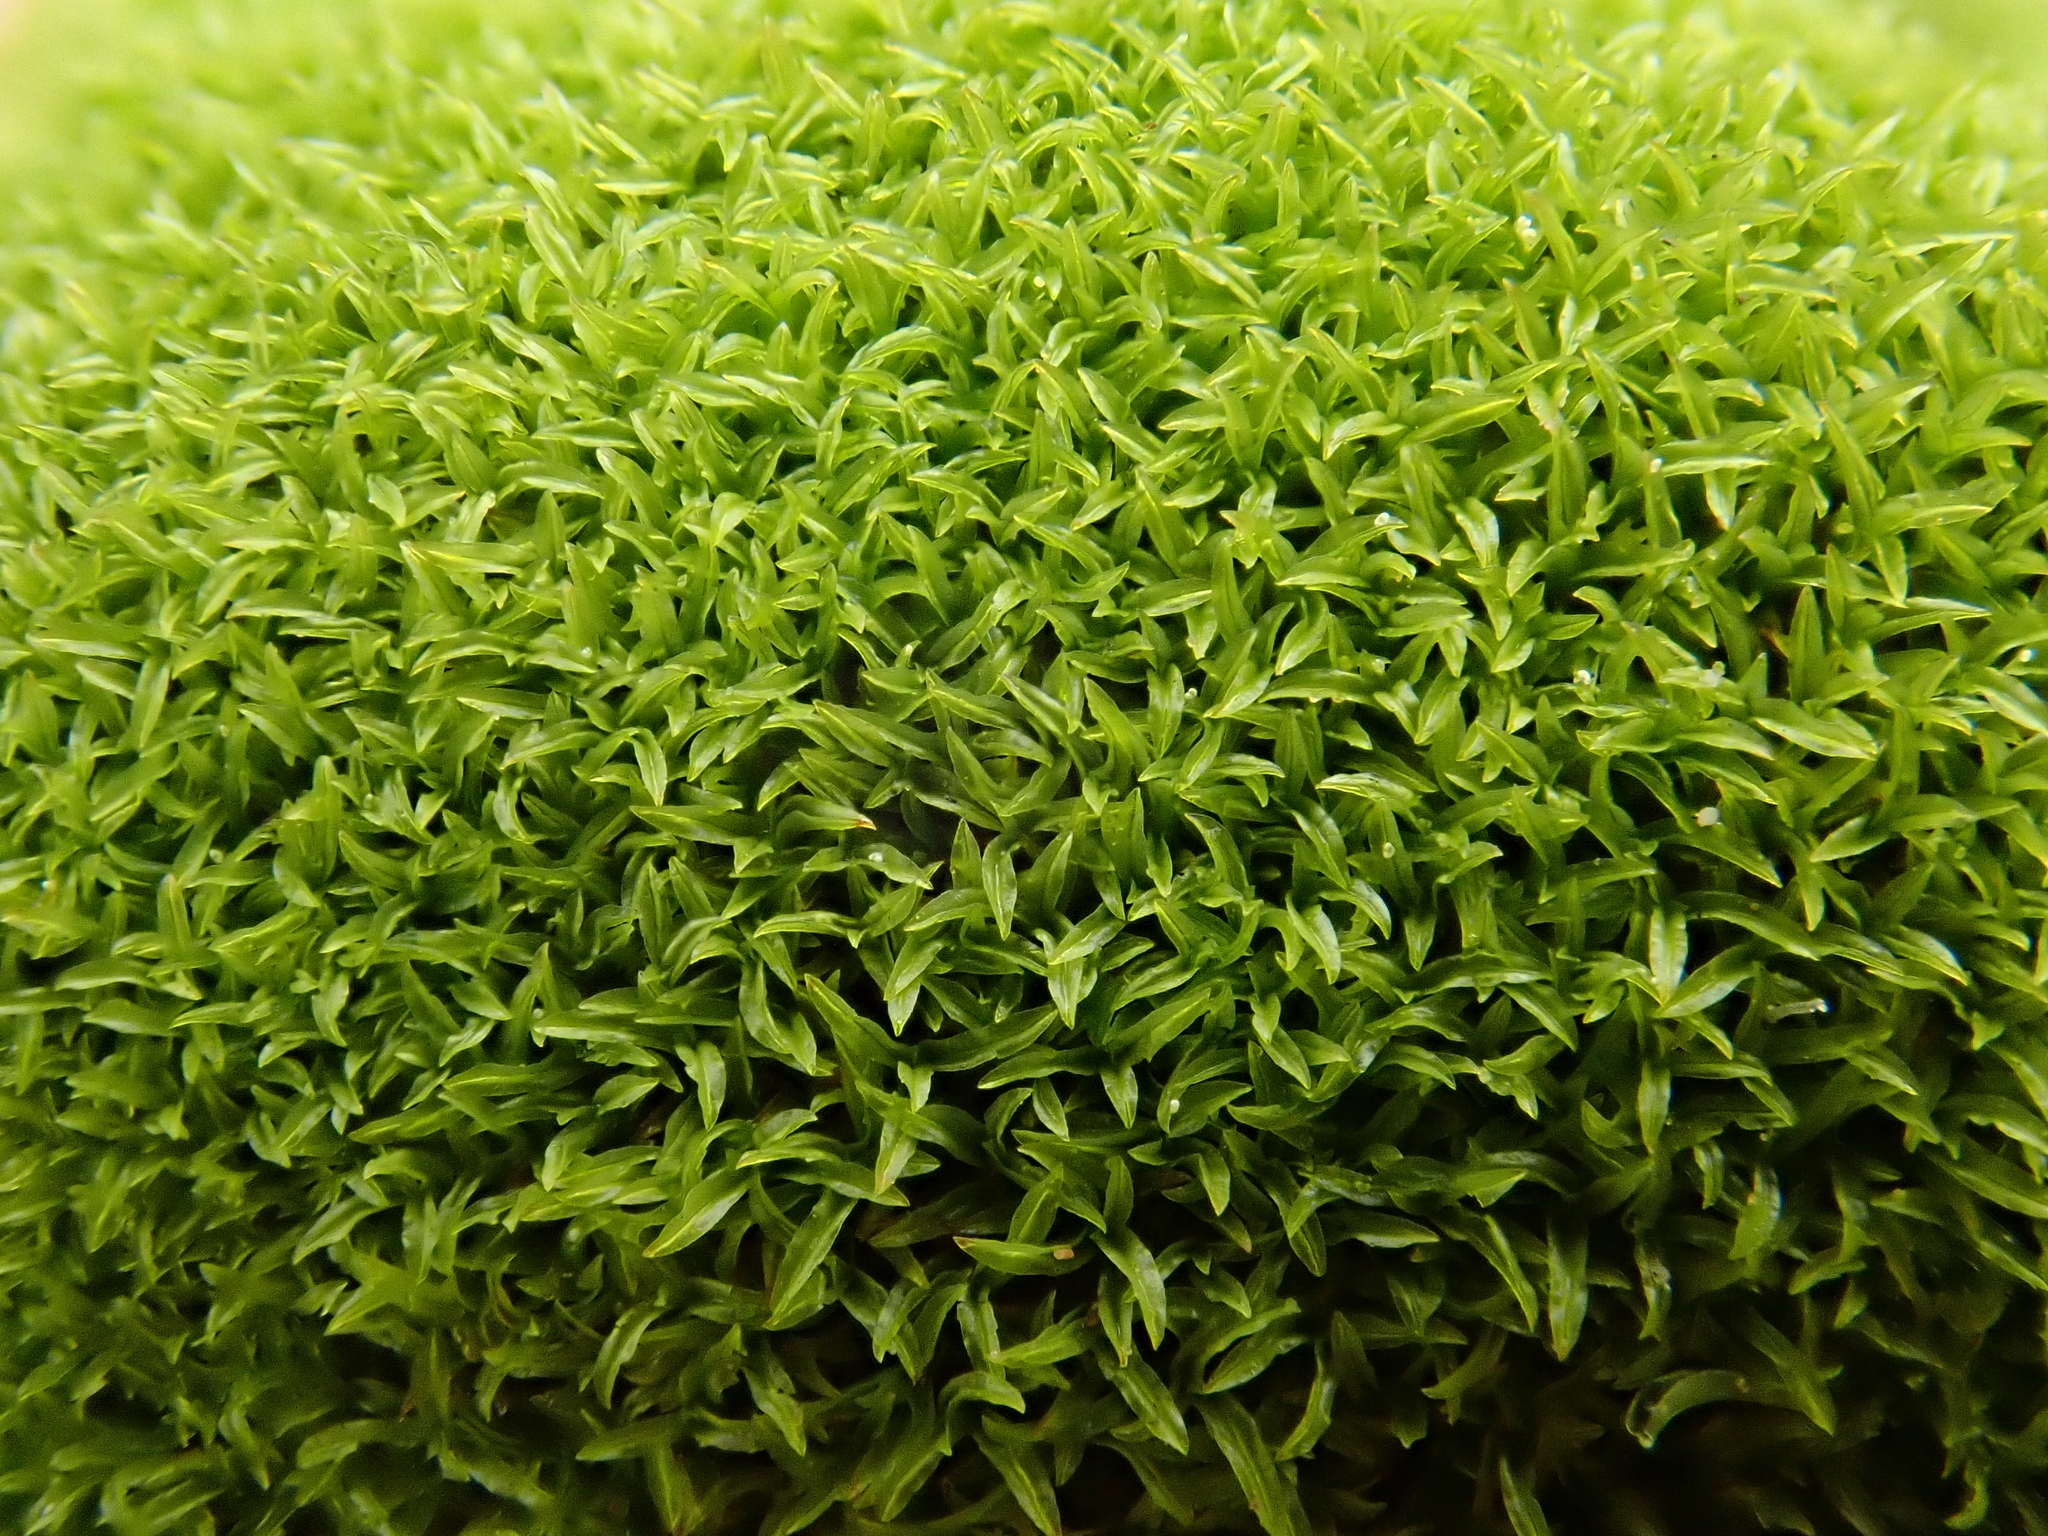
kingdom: Plantae
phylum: Bryophyta
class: Bryopsida
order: Pottiales
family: Pottiaceae
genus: Streblotrichum
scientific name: Streblotrichum convolutum
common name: Lesser bird's-claw beard-moss
